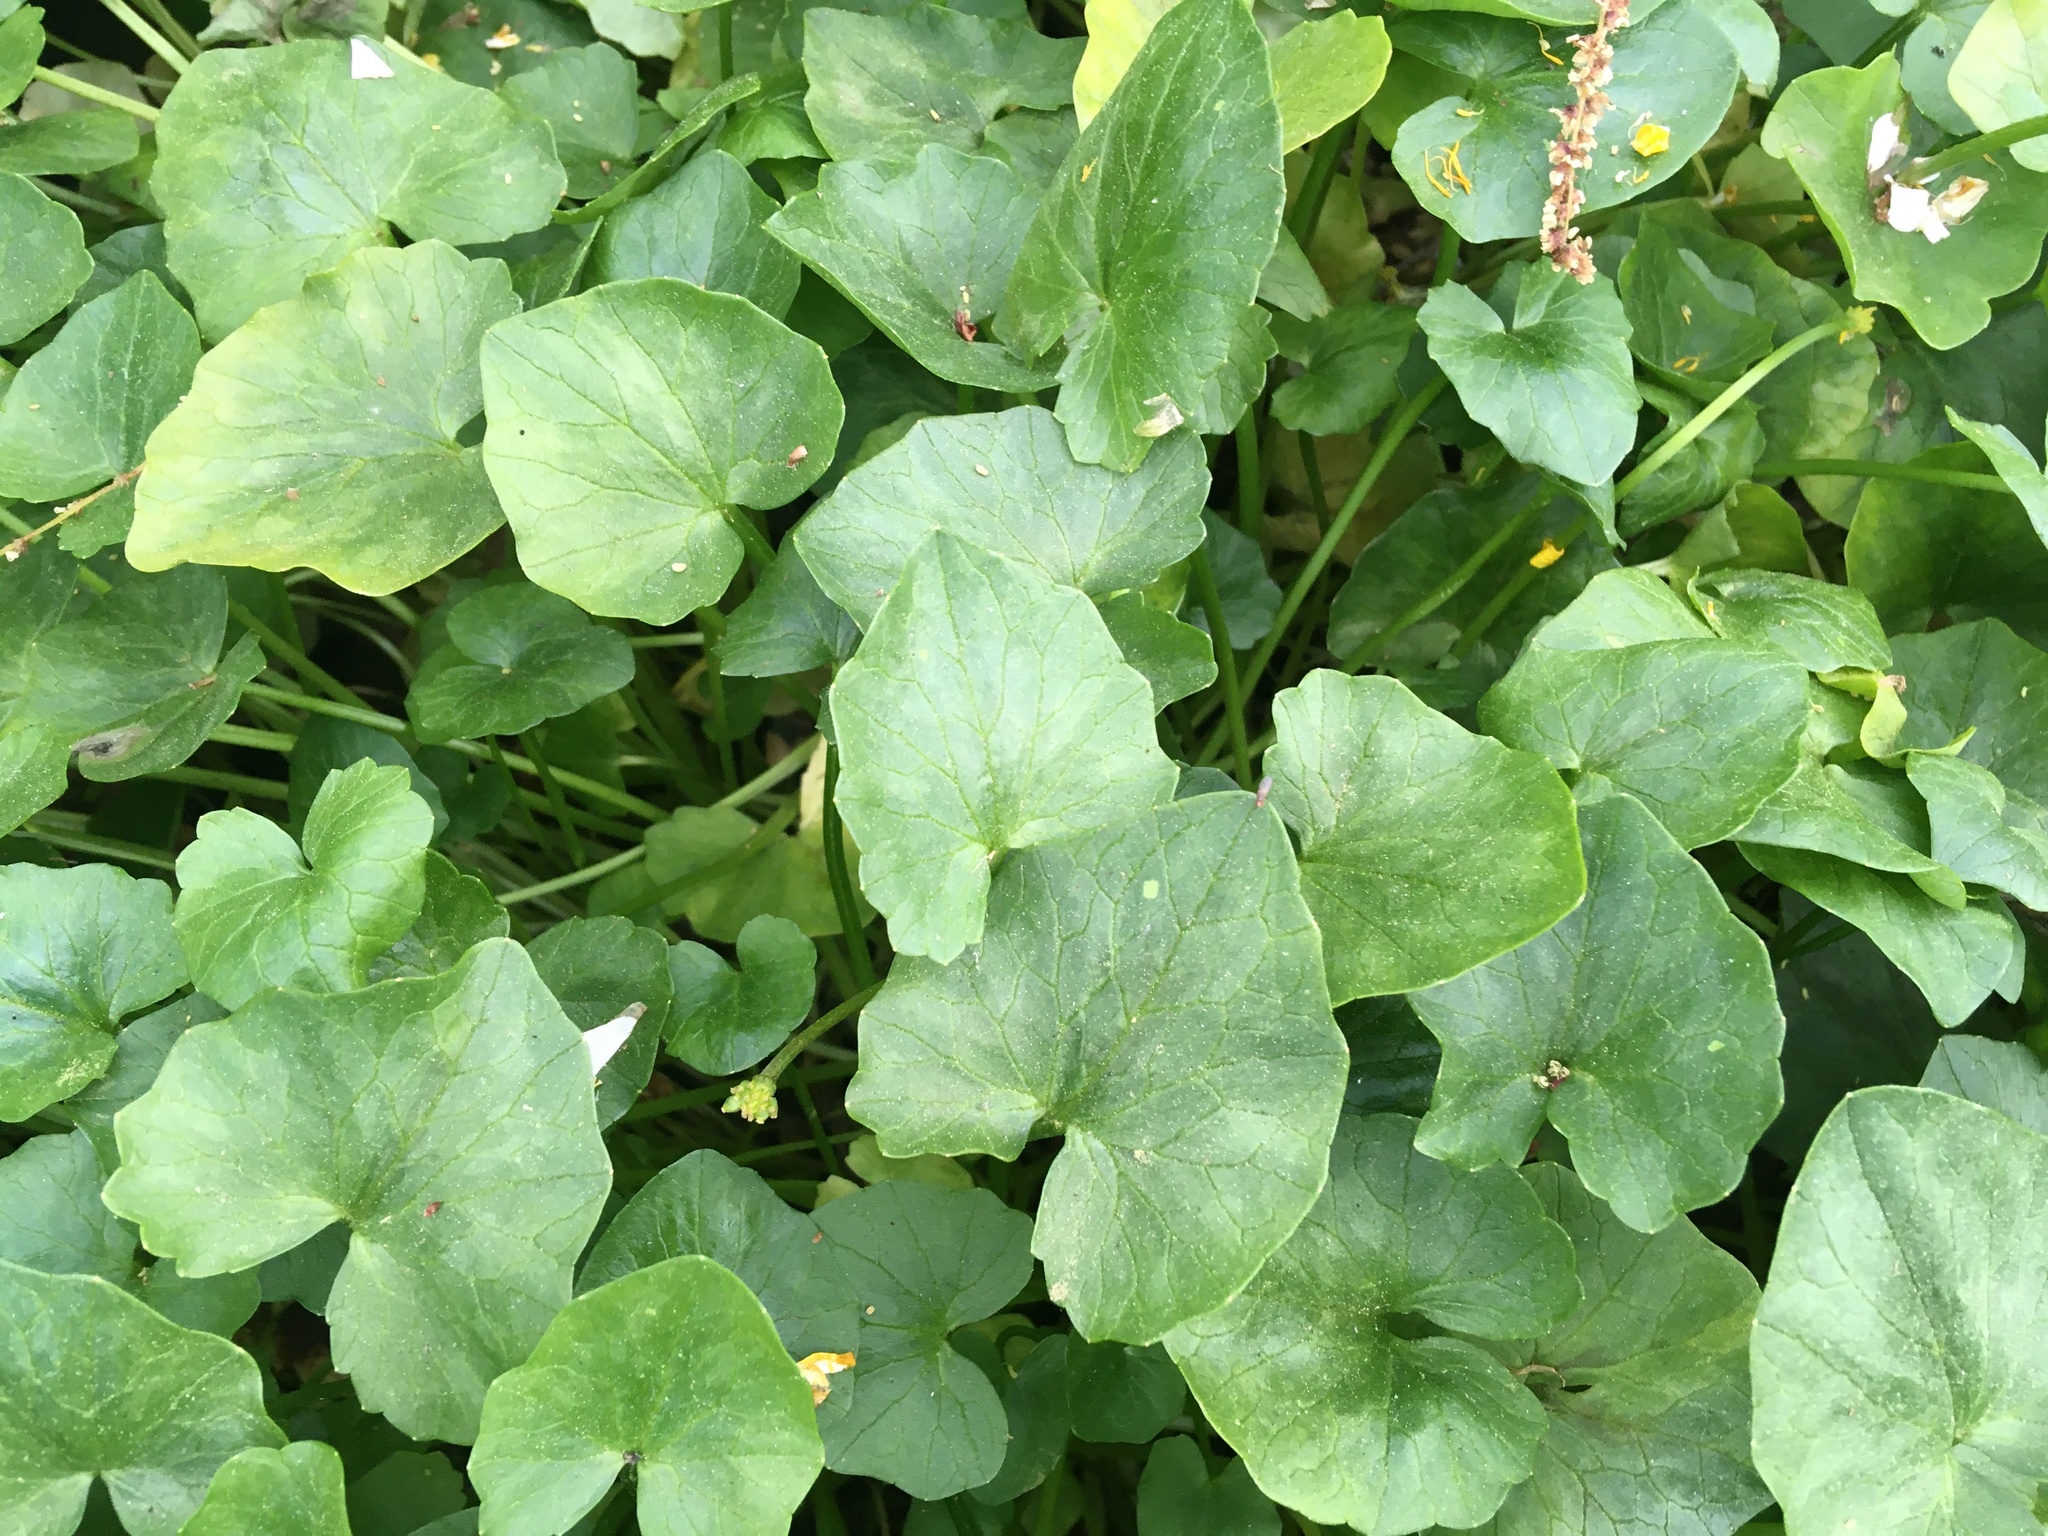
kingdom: Plantae
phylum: Tracheophyta
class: Magnoliopsida
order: Ranunculales
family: Ranunculaceae
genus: Ficaria
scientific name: Ficaria verna
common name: Lesser celandine
